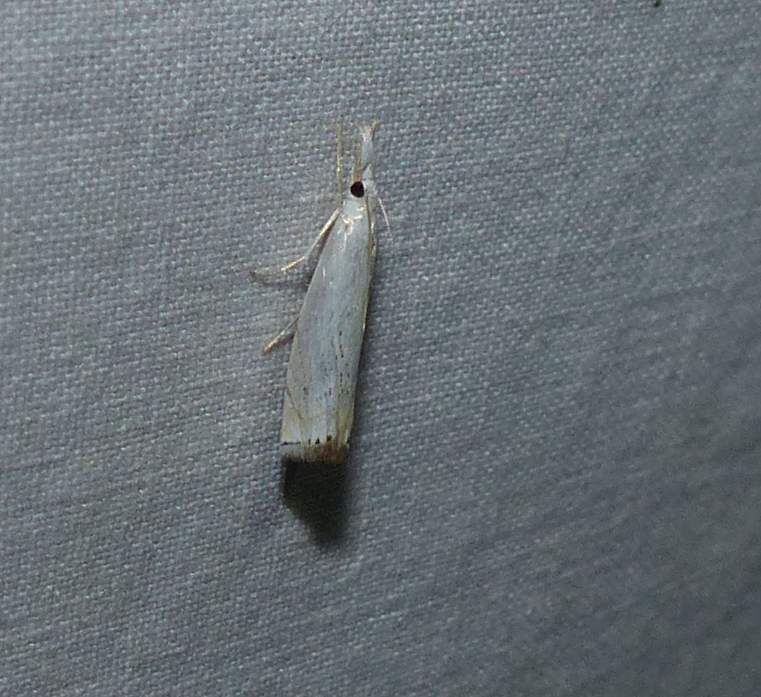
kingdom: Animalia
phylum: Arthropoda
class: Insecta
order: Lepidoptera
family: Crambidae
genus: Crambus
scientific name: Crambus albellus
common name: Small white grass-veneer
